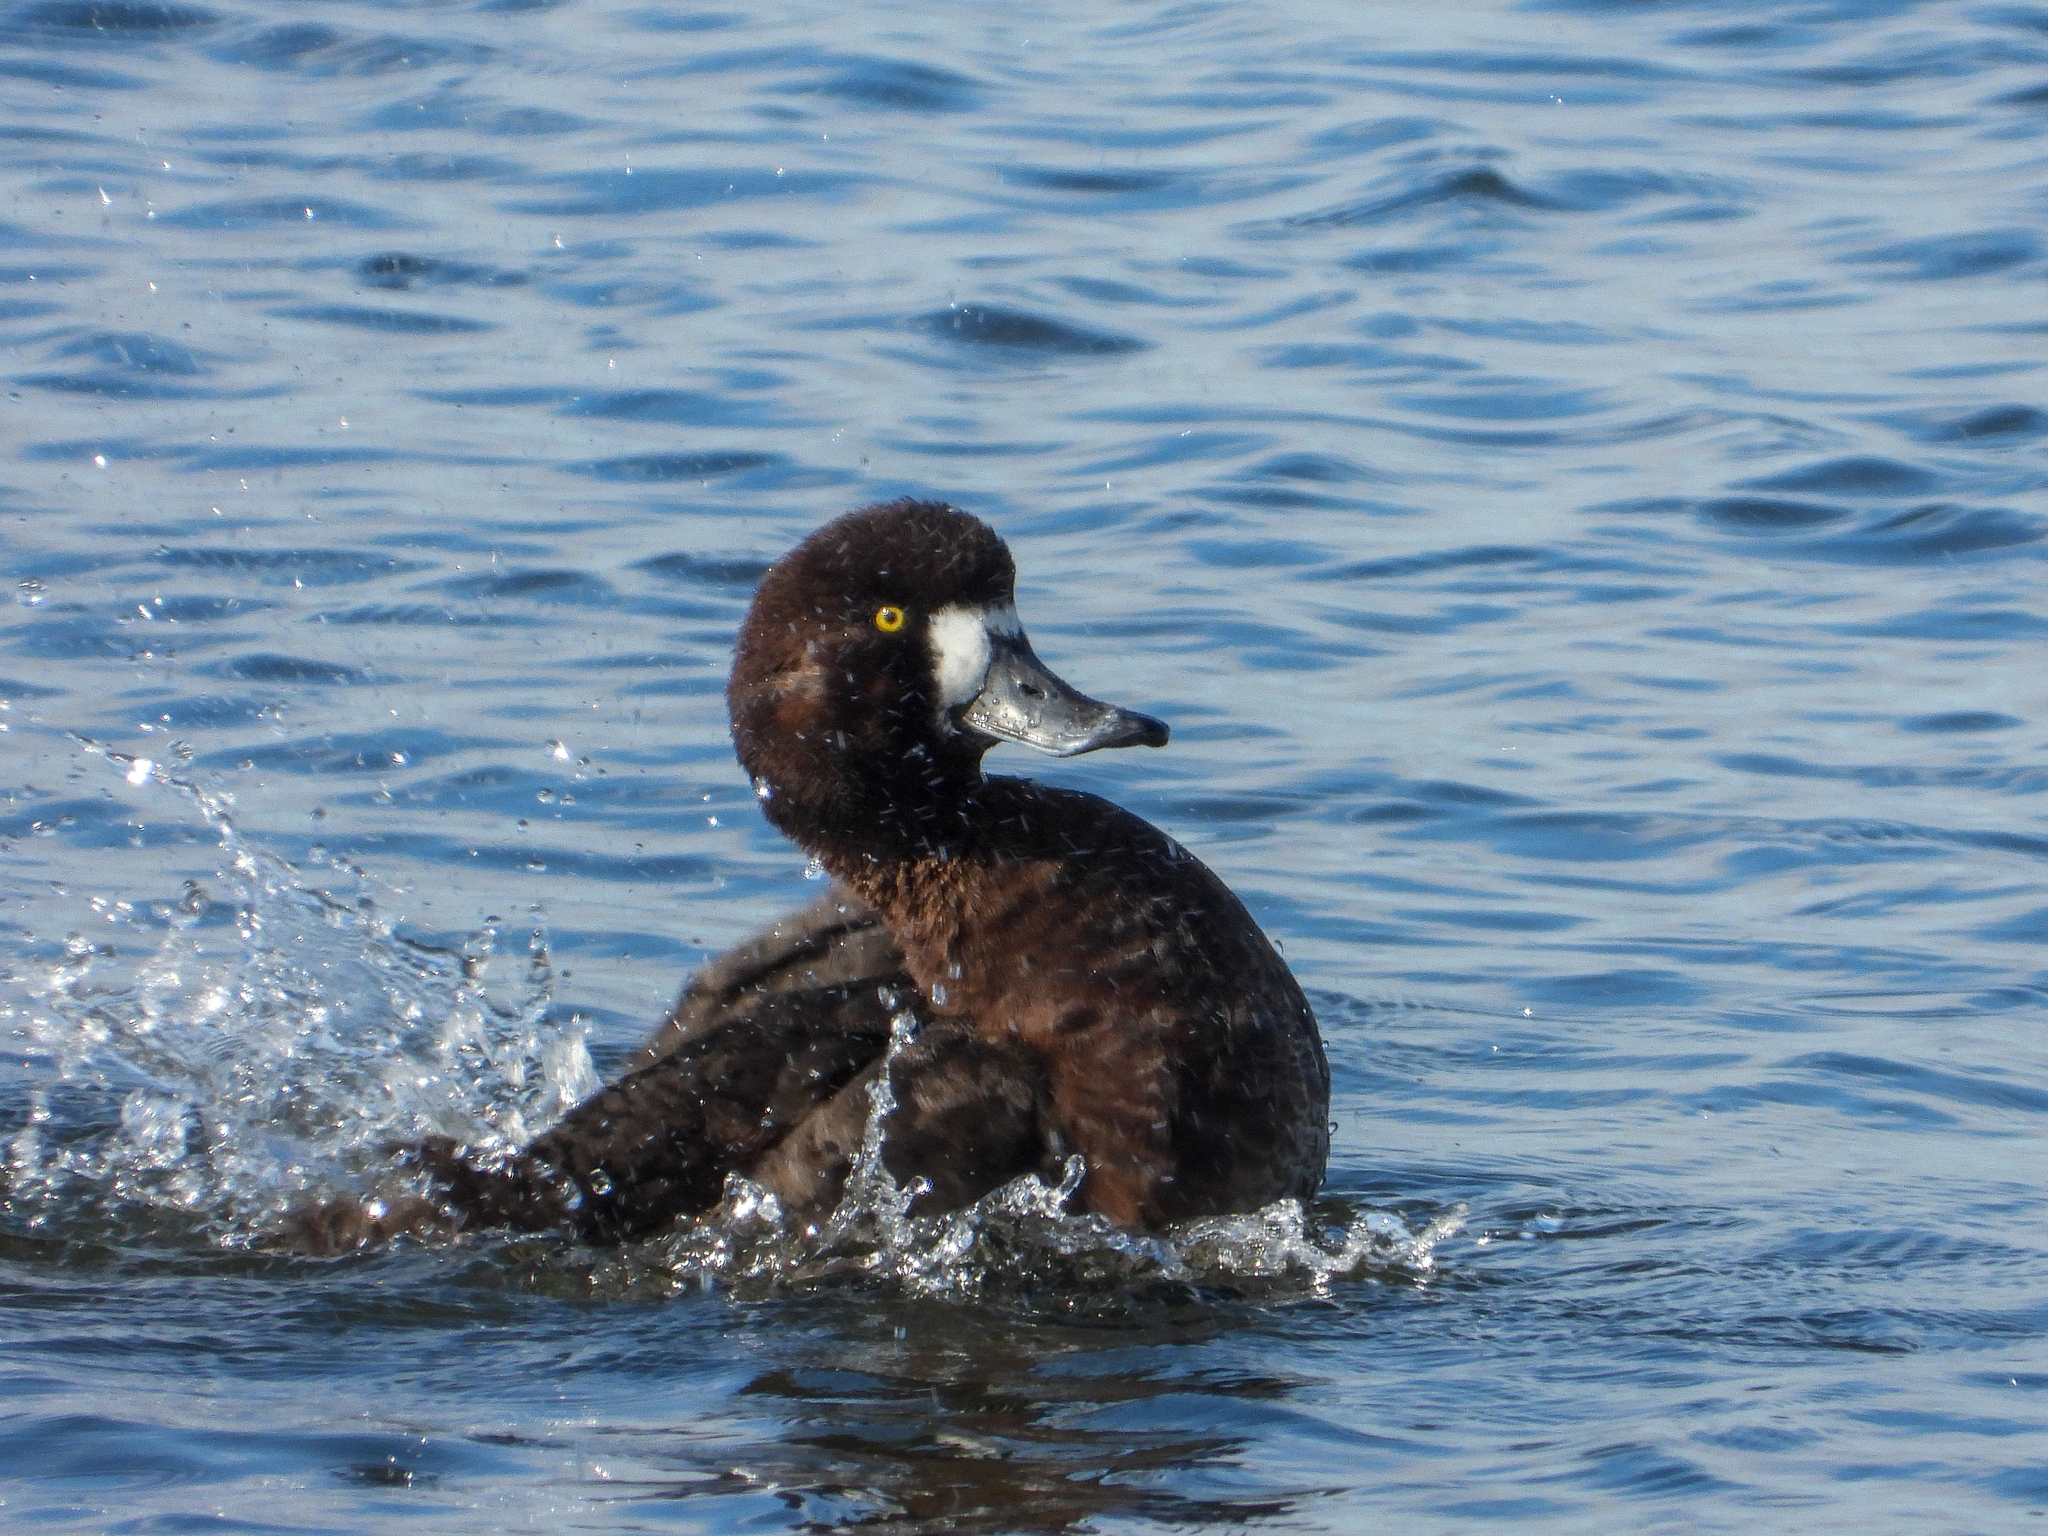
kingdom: Animalia
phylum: Chordata
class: Aves
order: Anseriformes
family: Anatidae
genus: Aythya
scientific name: Aythya marila
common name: Greater scaup
